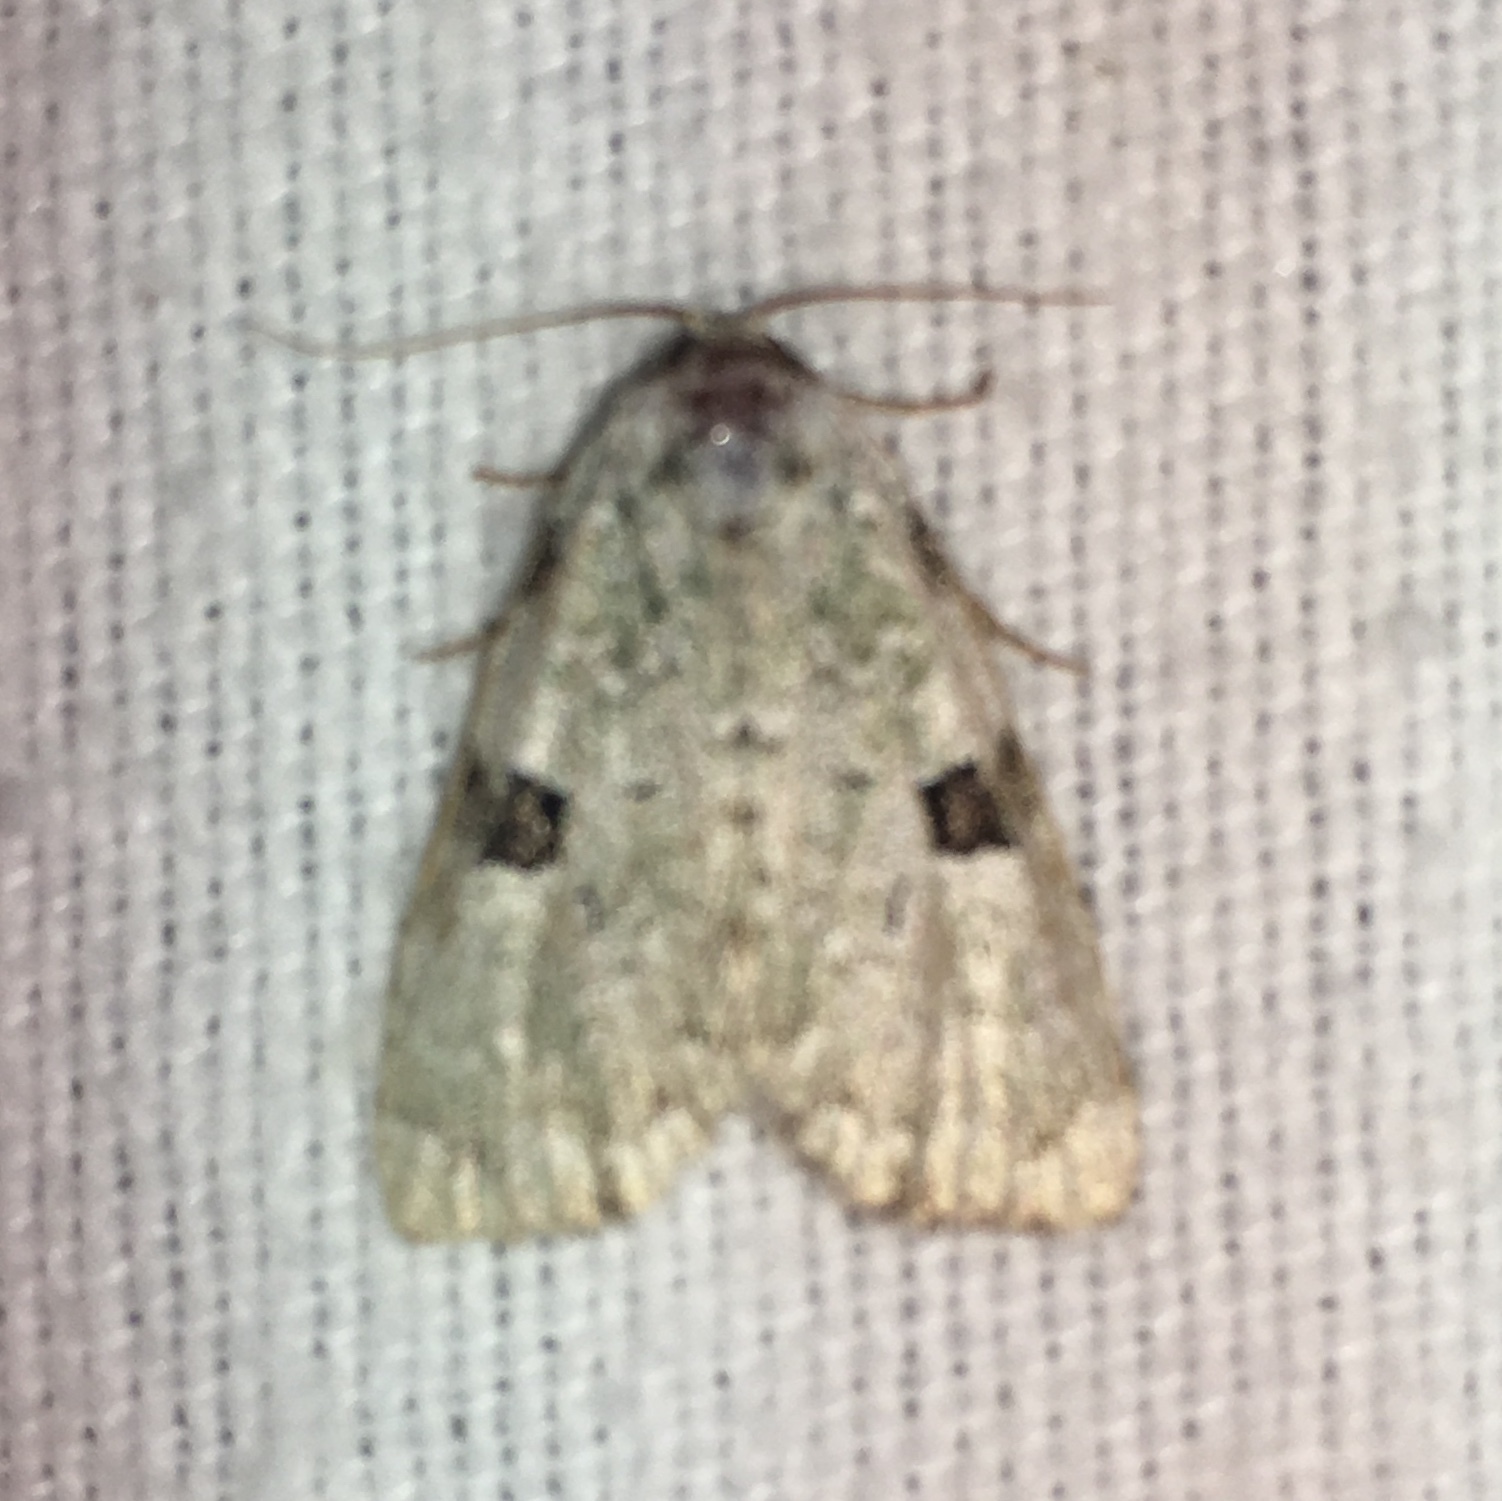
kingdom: Animalia
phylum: Arthropoda
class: Insecta
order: Lepidoptera
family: Noctuidae
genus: Leuconycta
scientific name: Leuconycta diphteroides
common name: Green leuconycta moth
